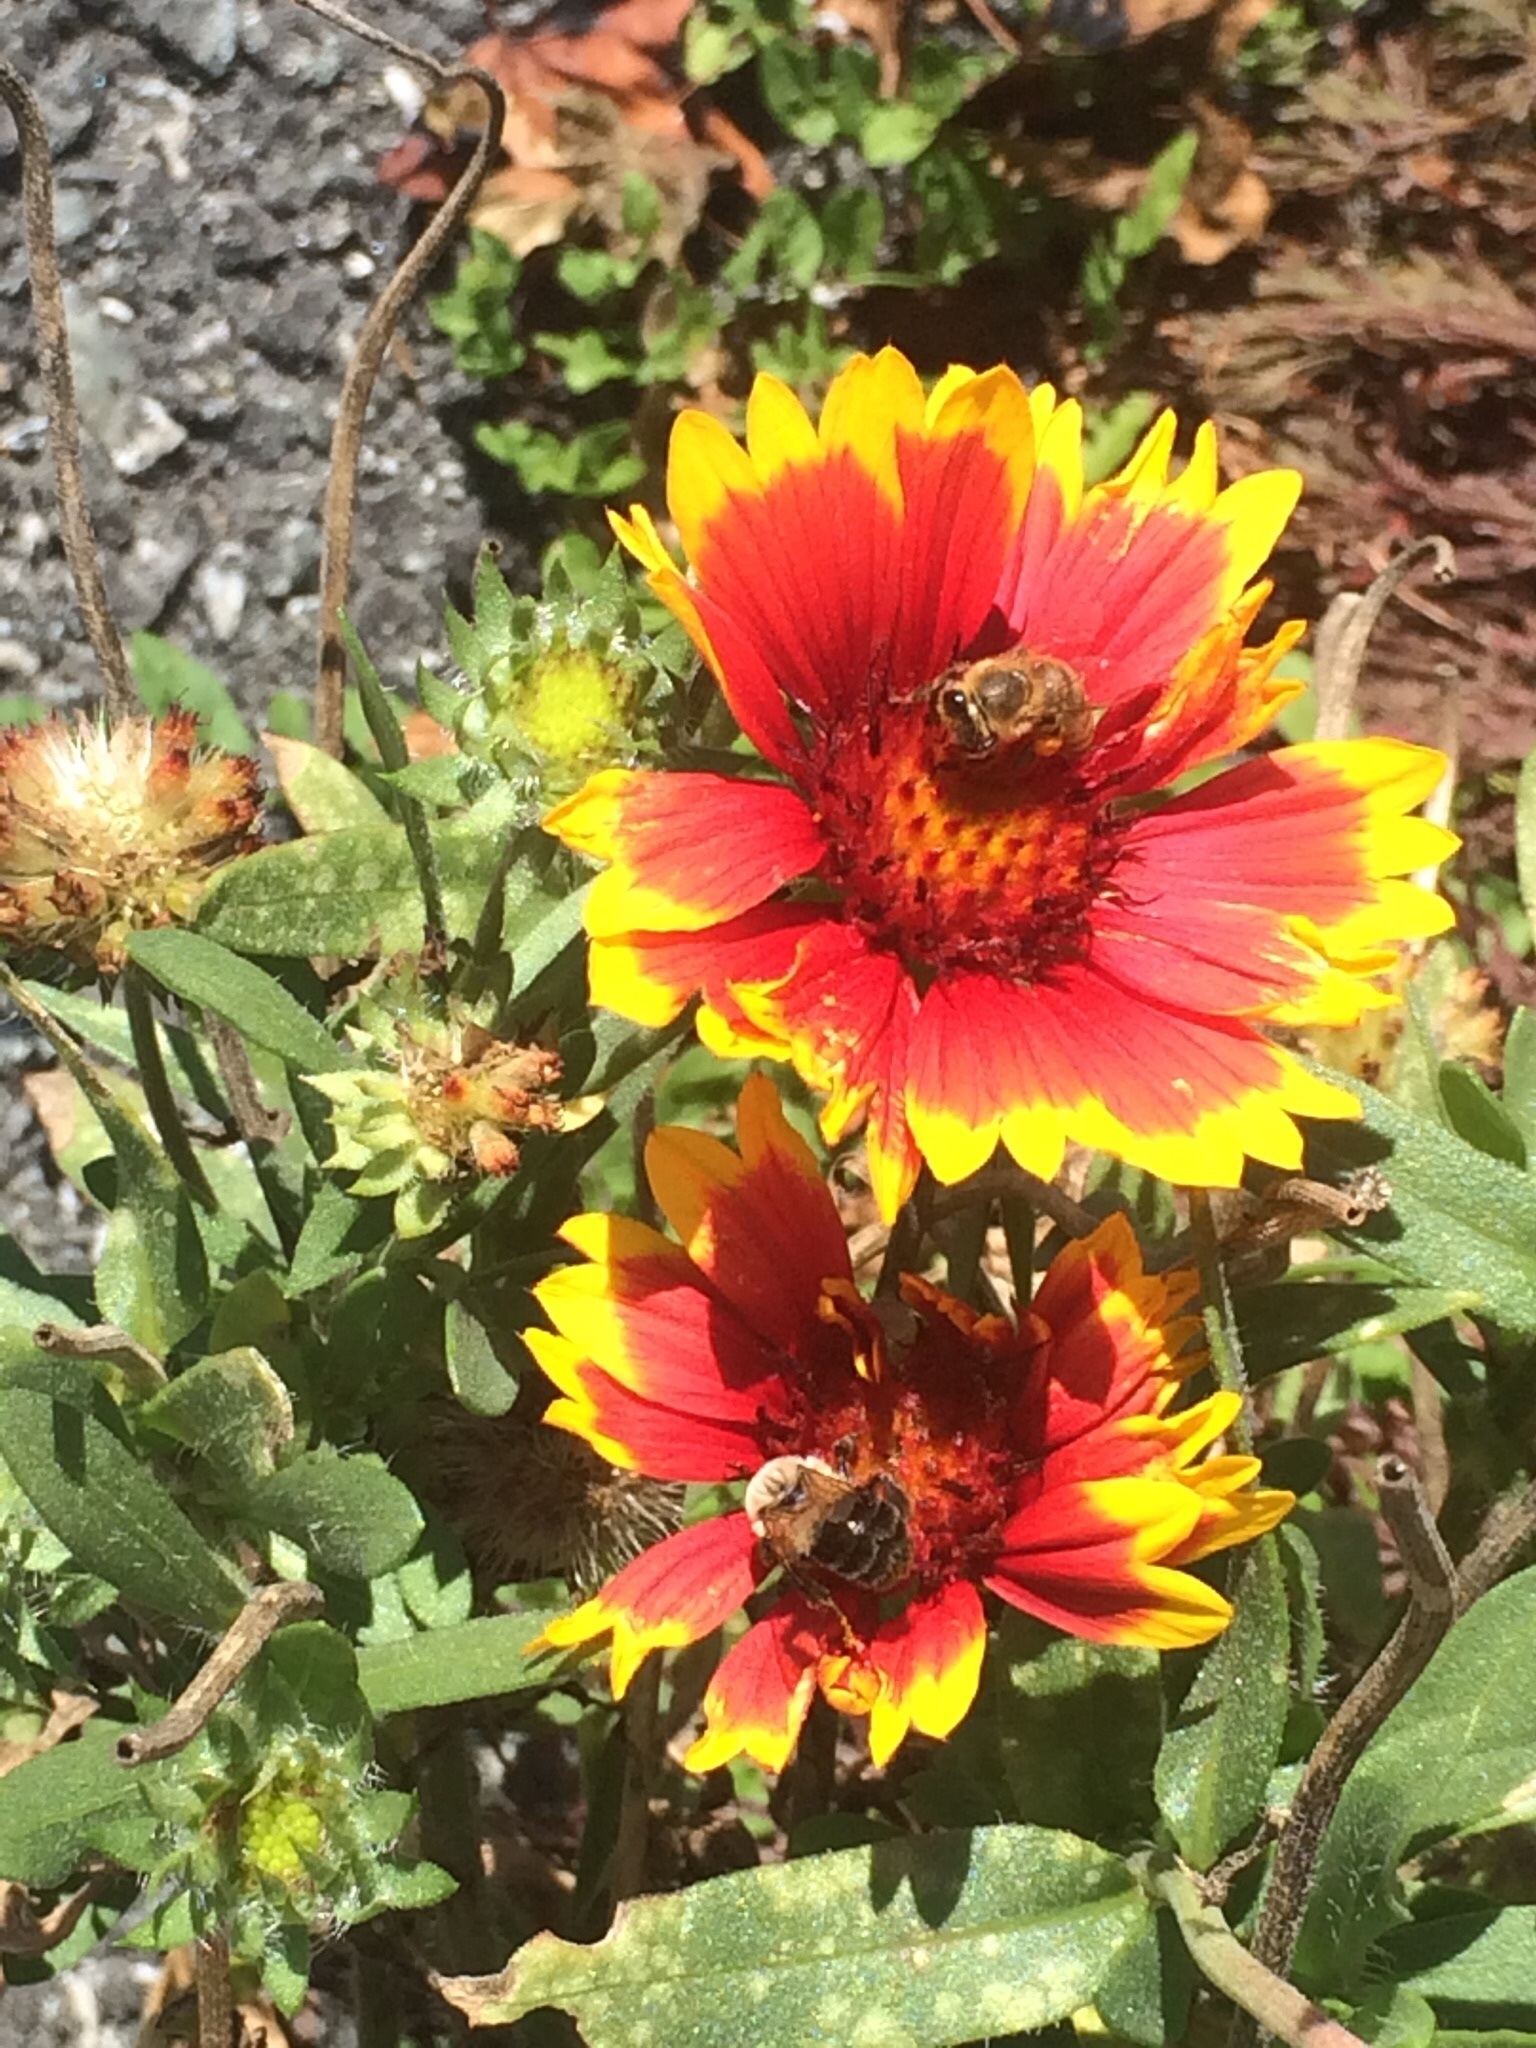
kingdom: Plantae
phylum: Tracheophyta
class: Magnoliopsida
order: Asterales
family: Asteraceae
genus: Gaillardia
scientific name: Gaillardia pulchella
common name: Firewheel
